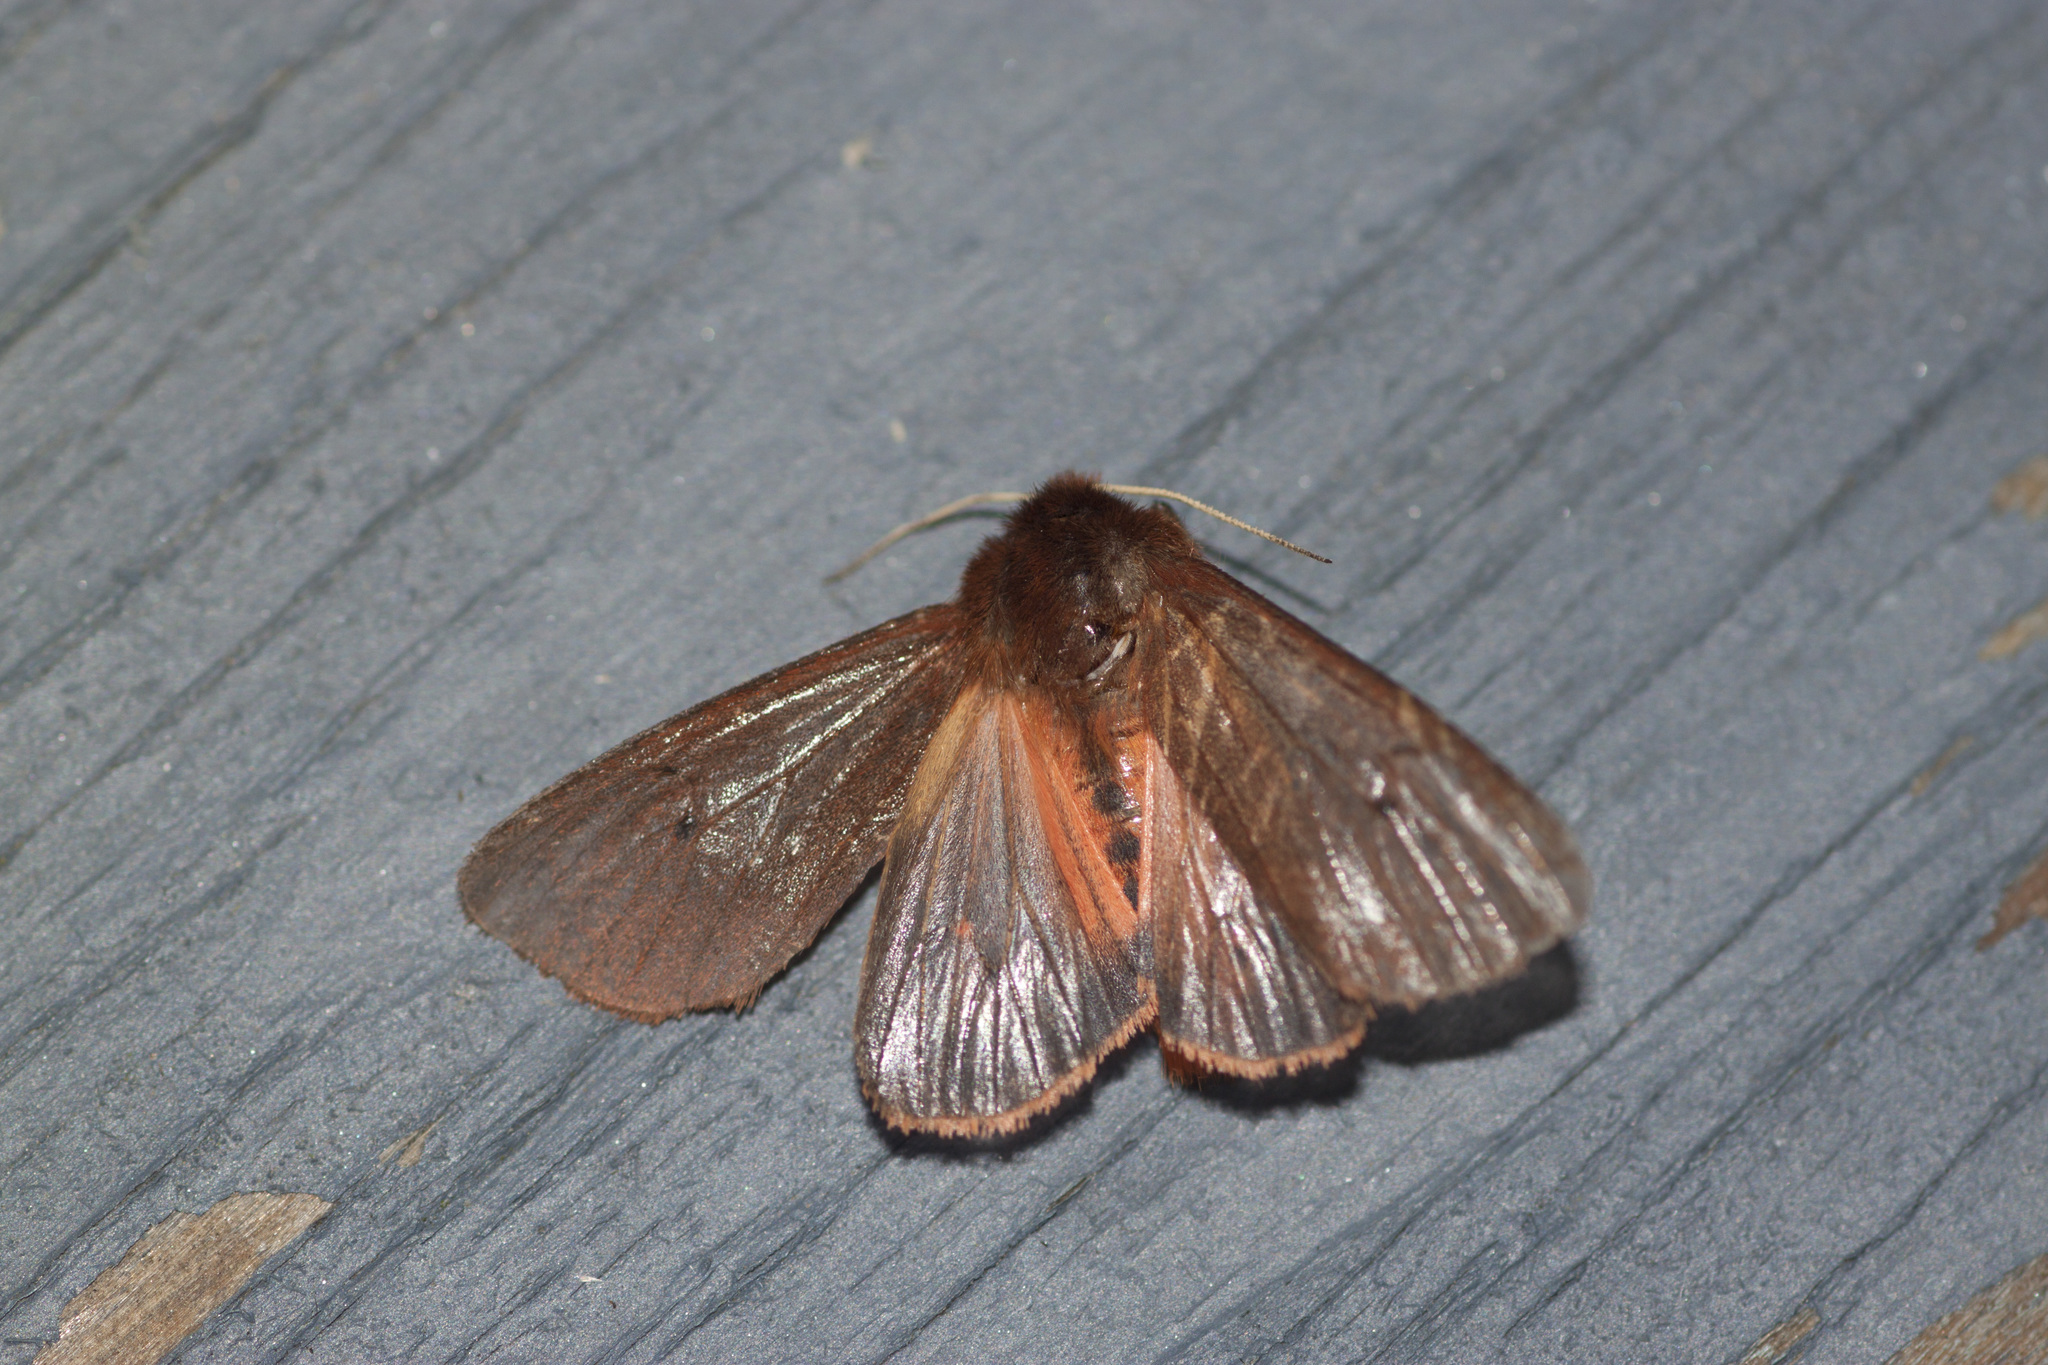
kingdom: Animalia
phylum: Arthropoda
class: Insecta
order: Lepidoptera
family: Erebidae
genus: Phragmatobia
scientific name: Phragmatobia fuliginosa
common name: Ruby tiger
